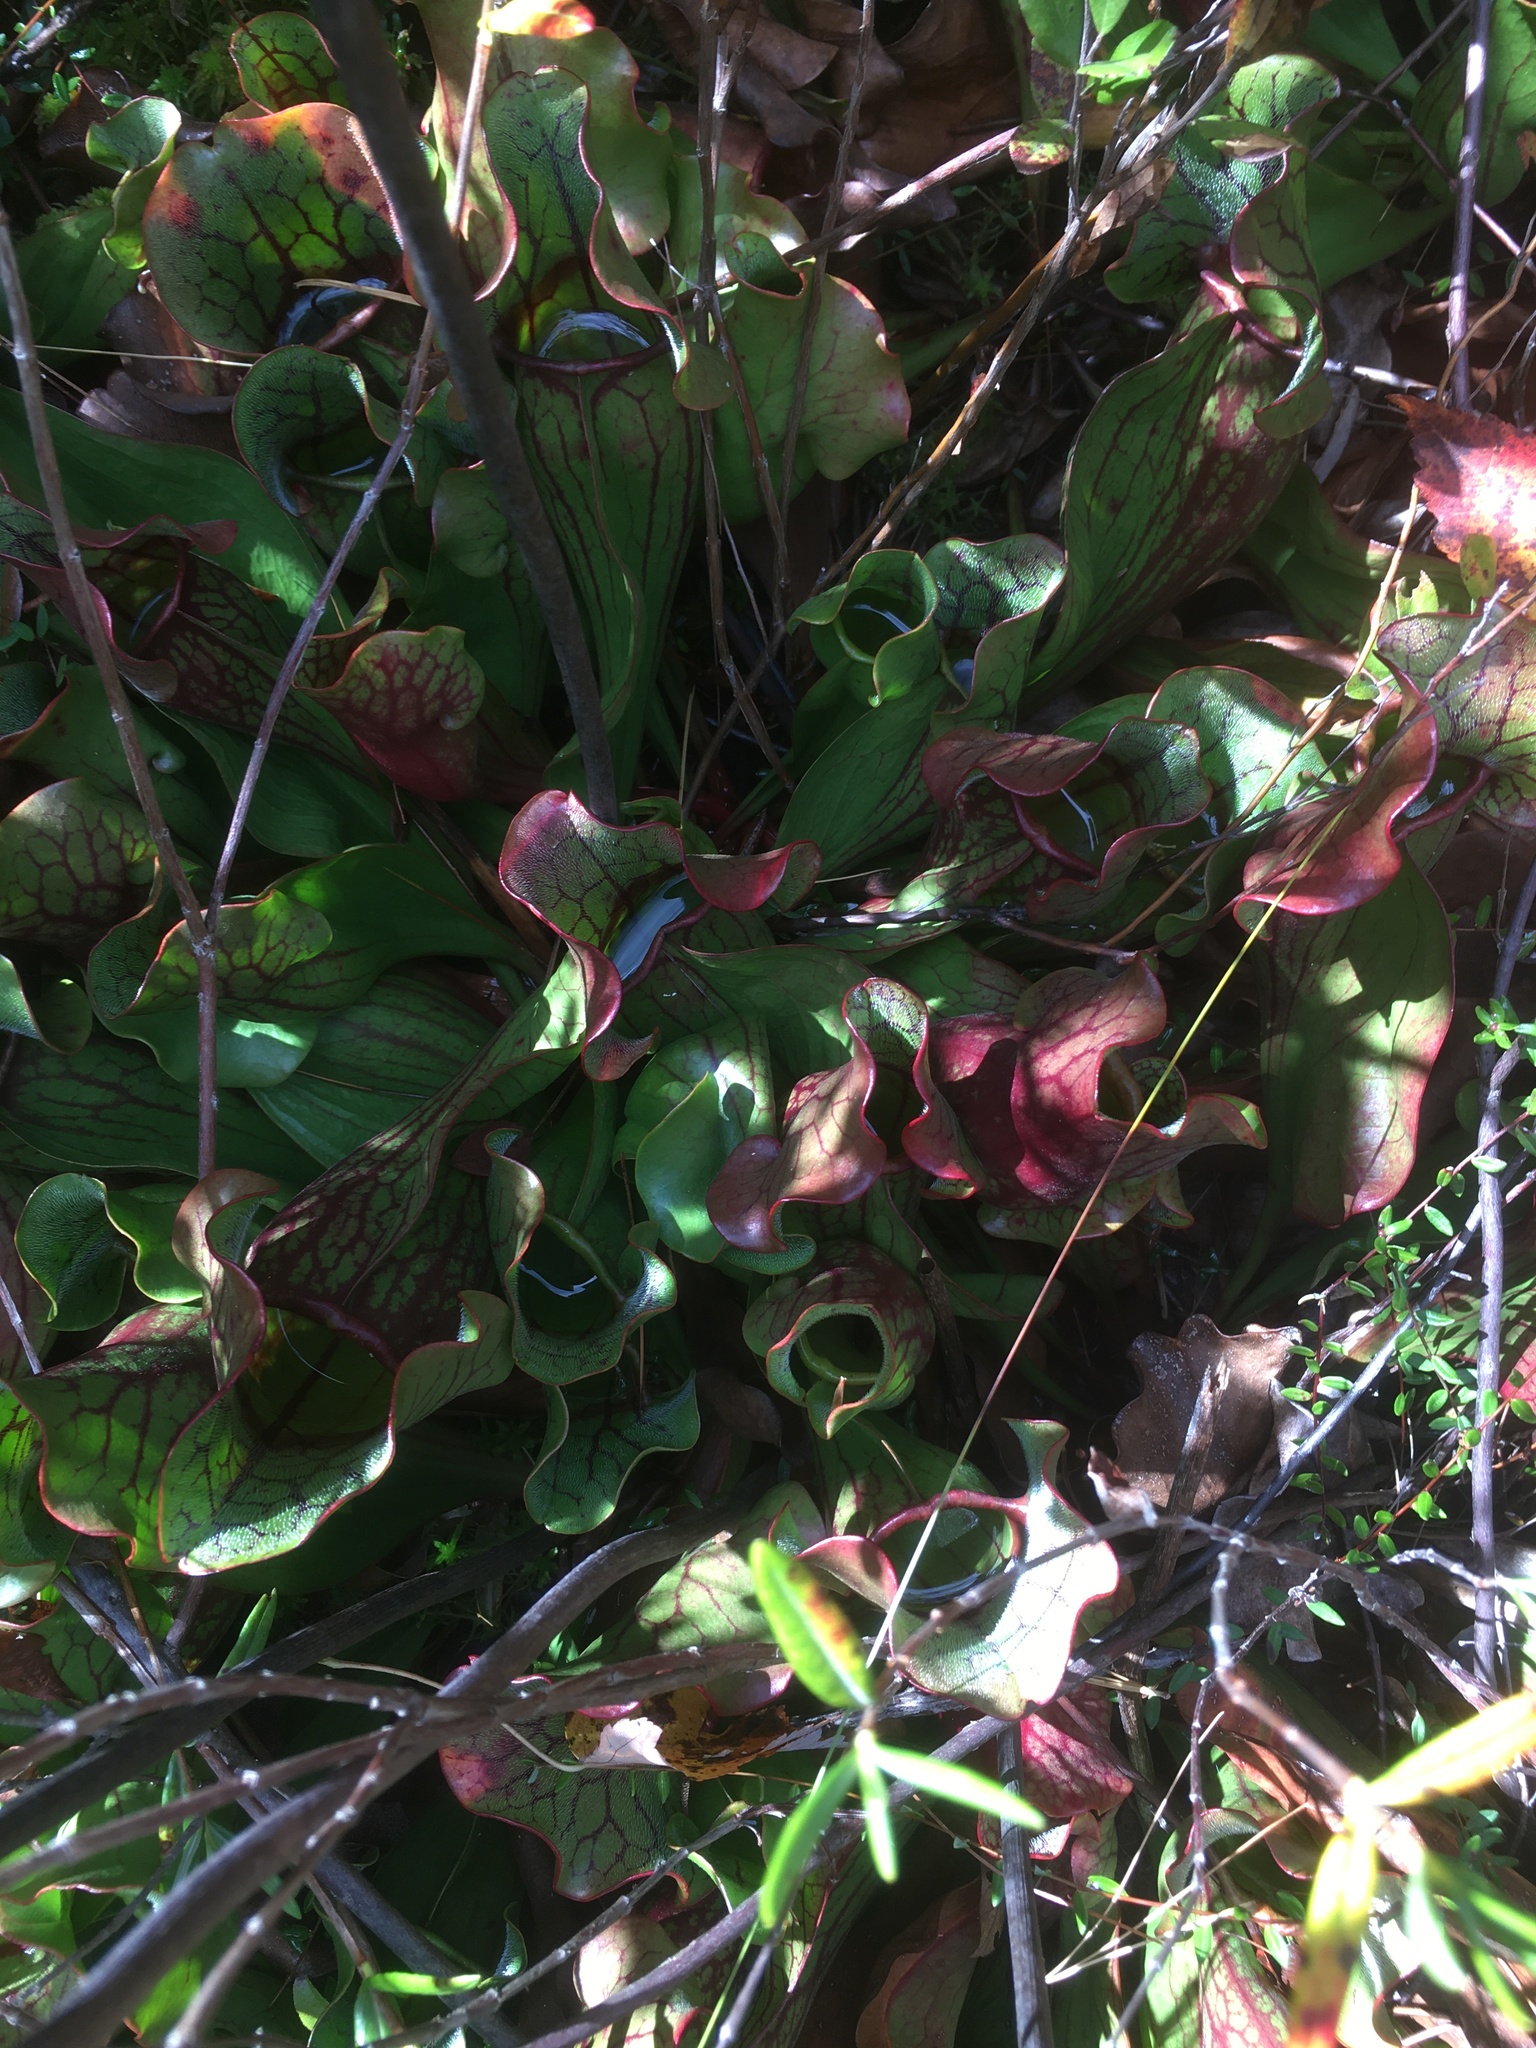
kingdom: Plantae
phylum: Tracheophyta
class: Magnoliopsida
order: Ericales
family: Sarraceniaceae
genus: Sarracenia
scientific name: Sarracenia purpurea
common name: Pitcherplant
